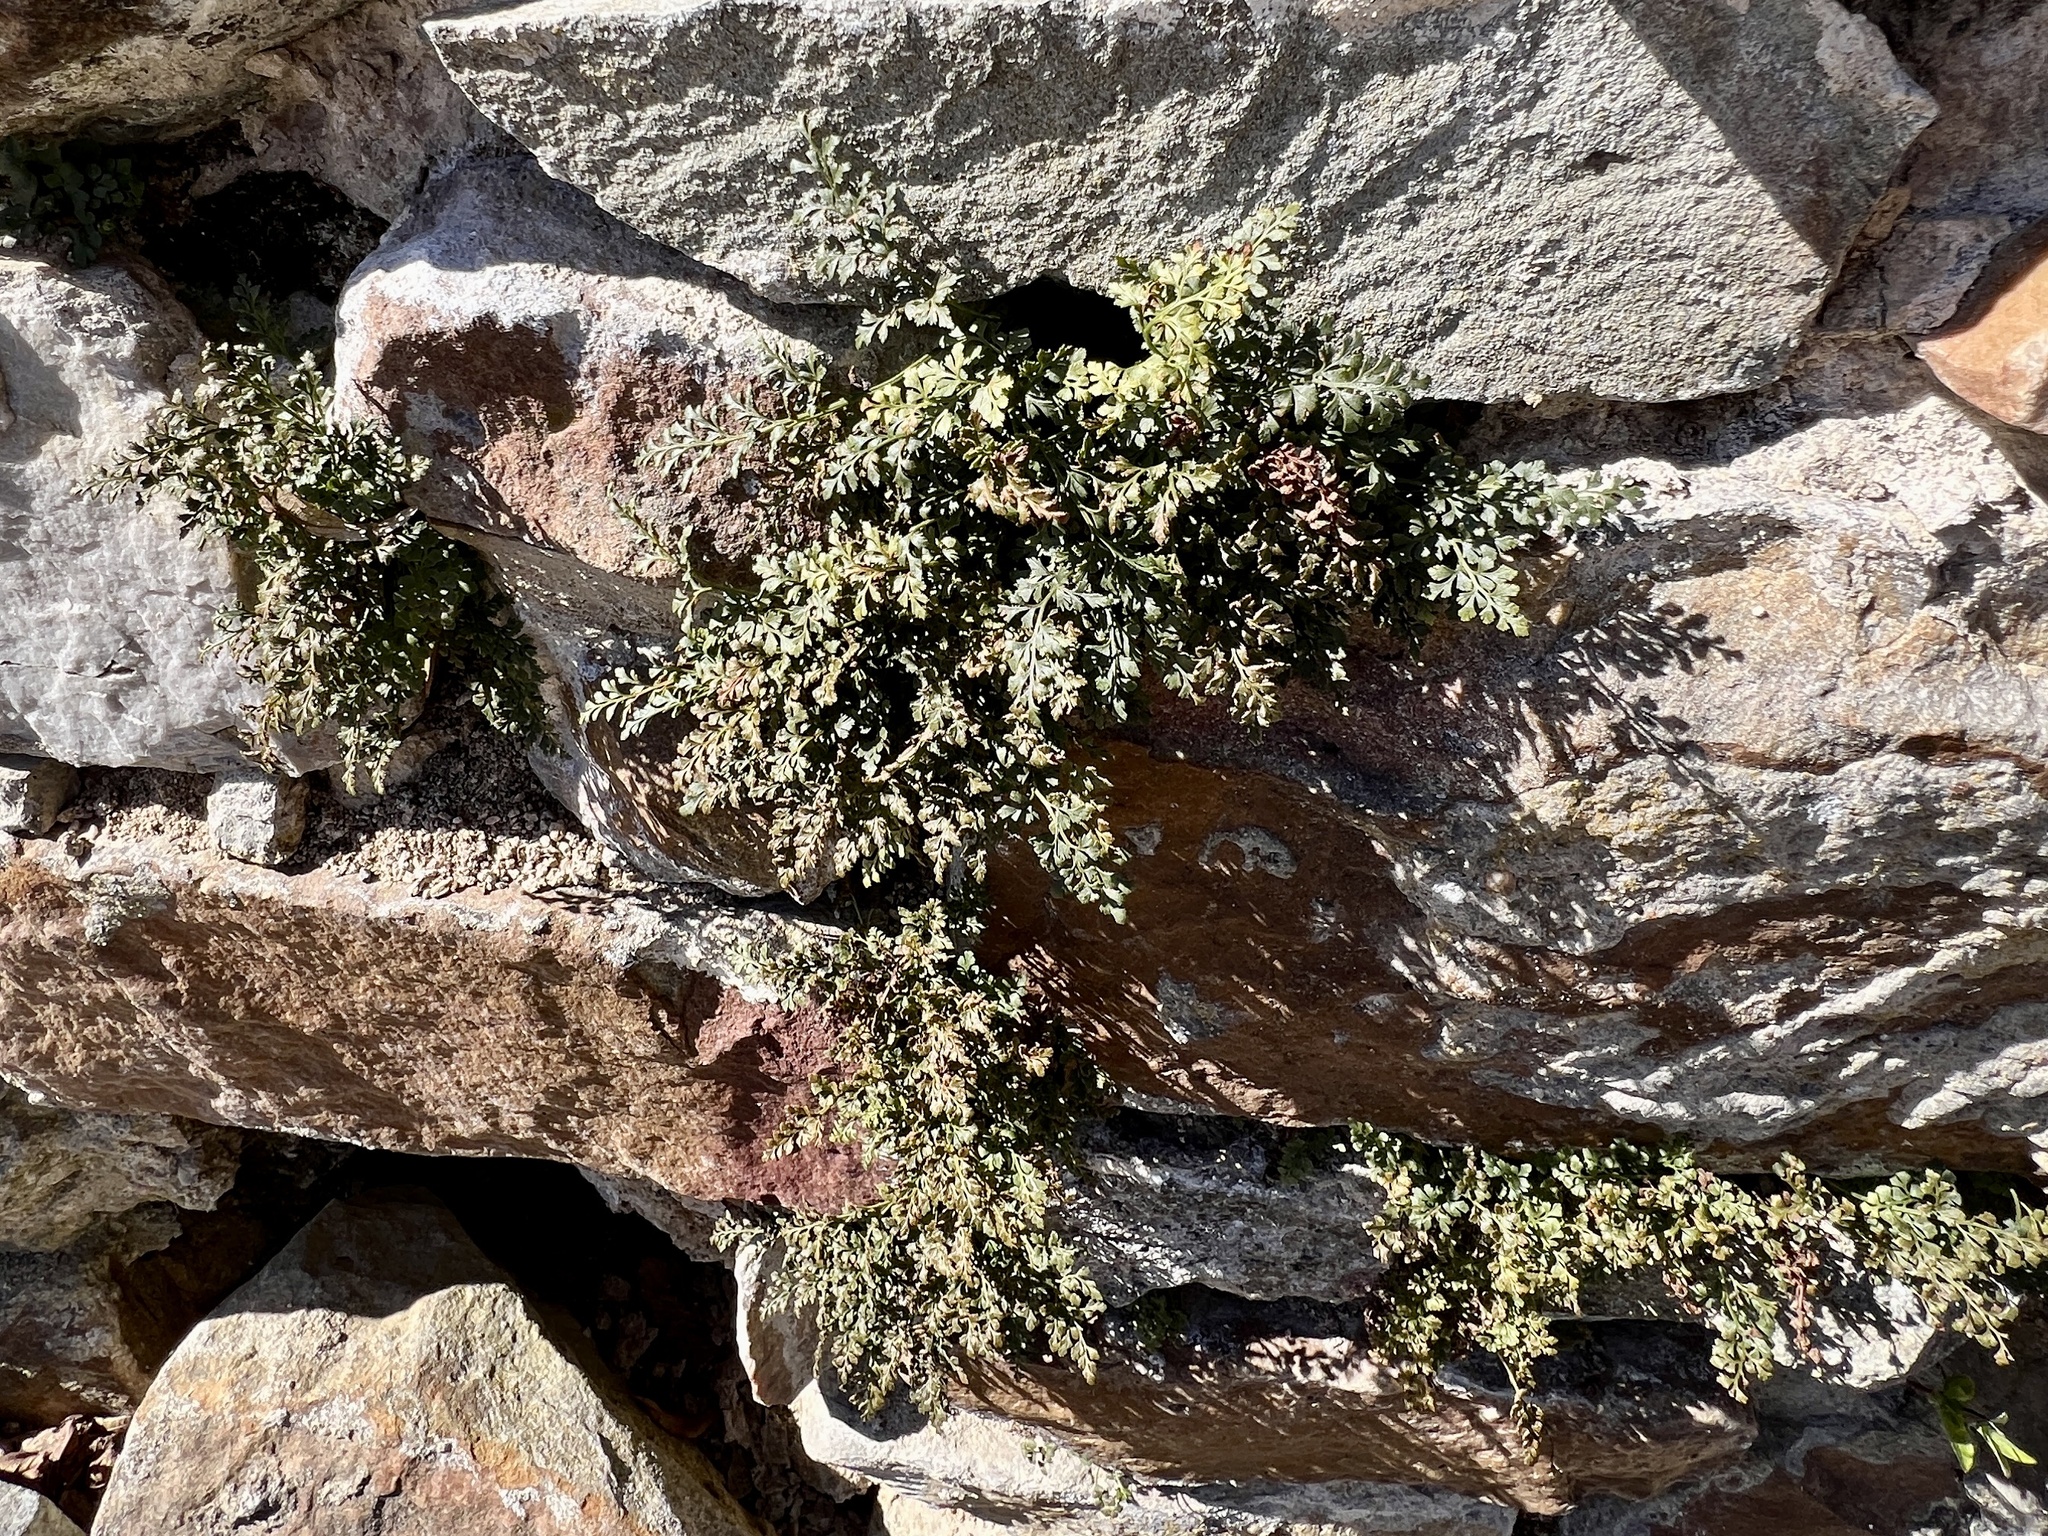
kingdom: Plantae
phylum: Tracheophyta
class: Polypodiopsida
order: Polypodiales
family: Aspleniaceae
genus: Asplenium
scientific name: Asplenium ruta-muraria
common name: Wall-rue
